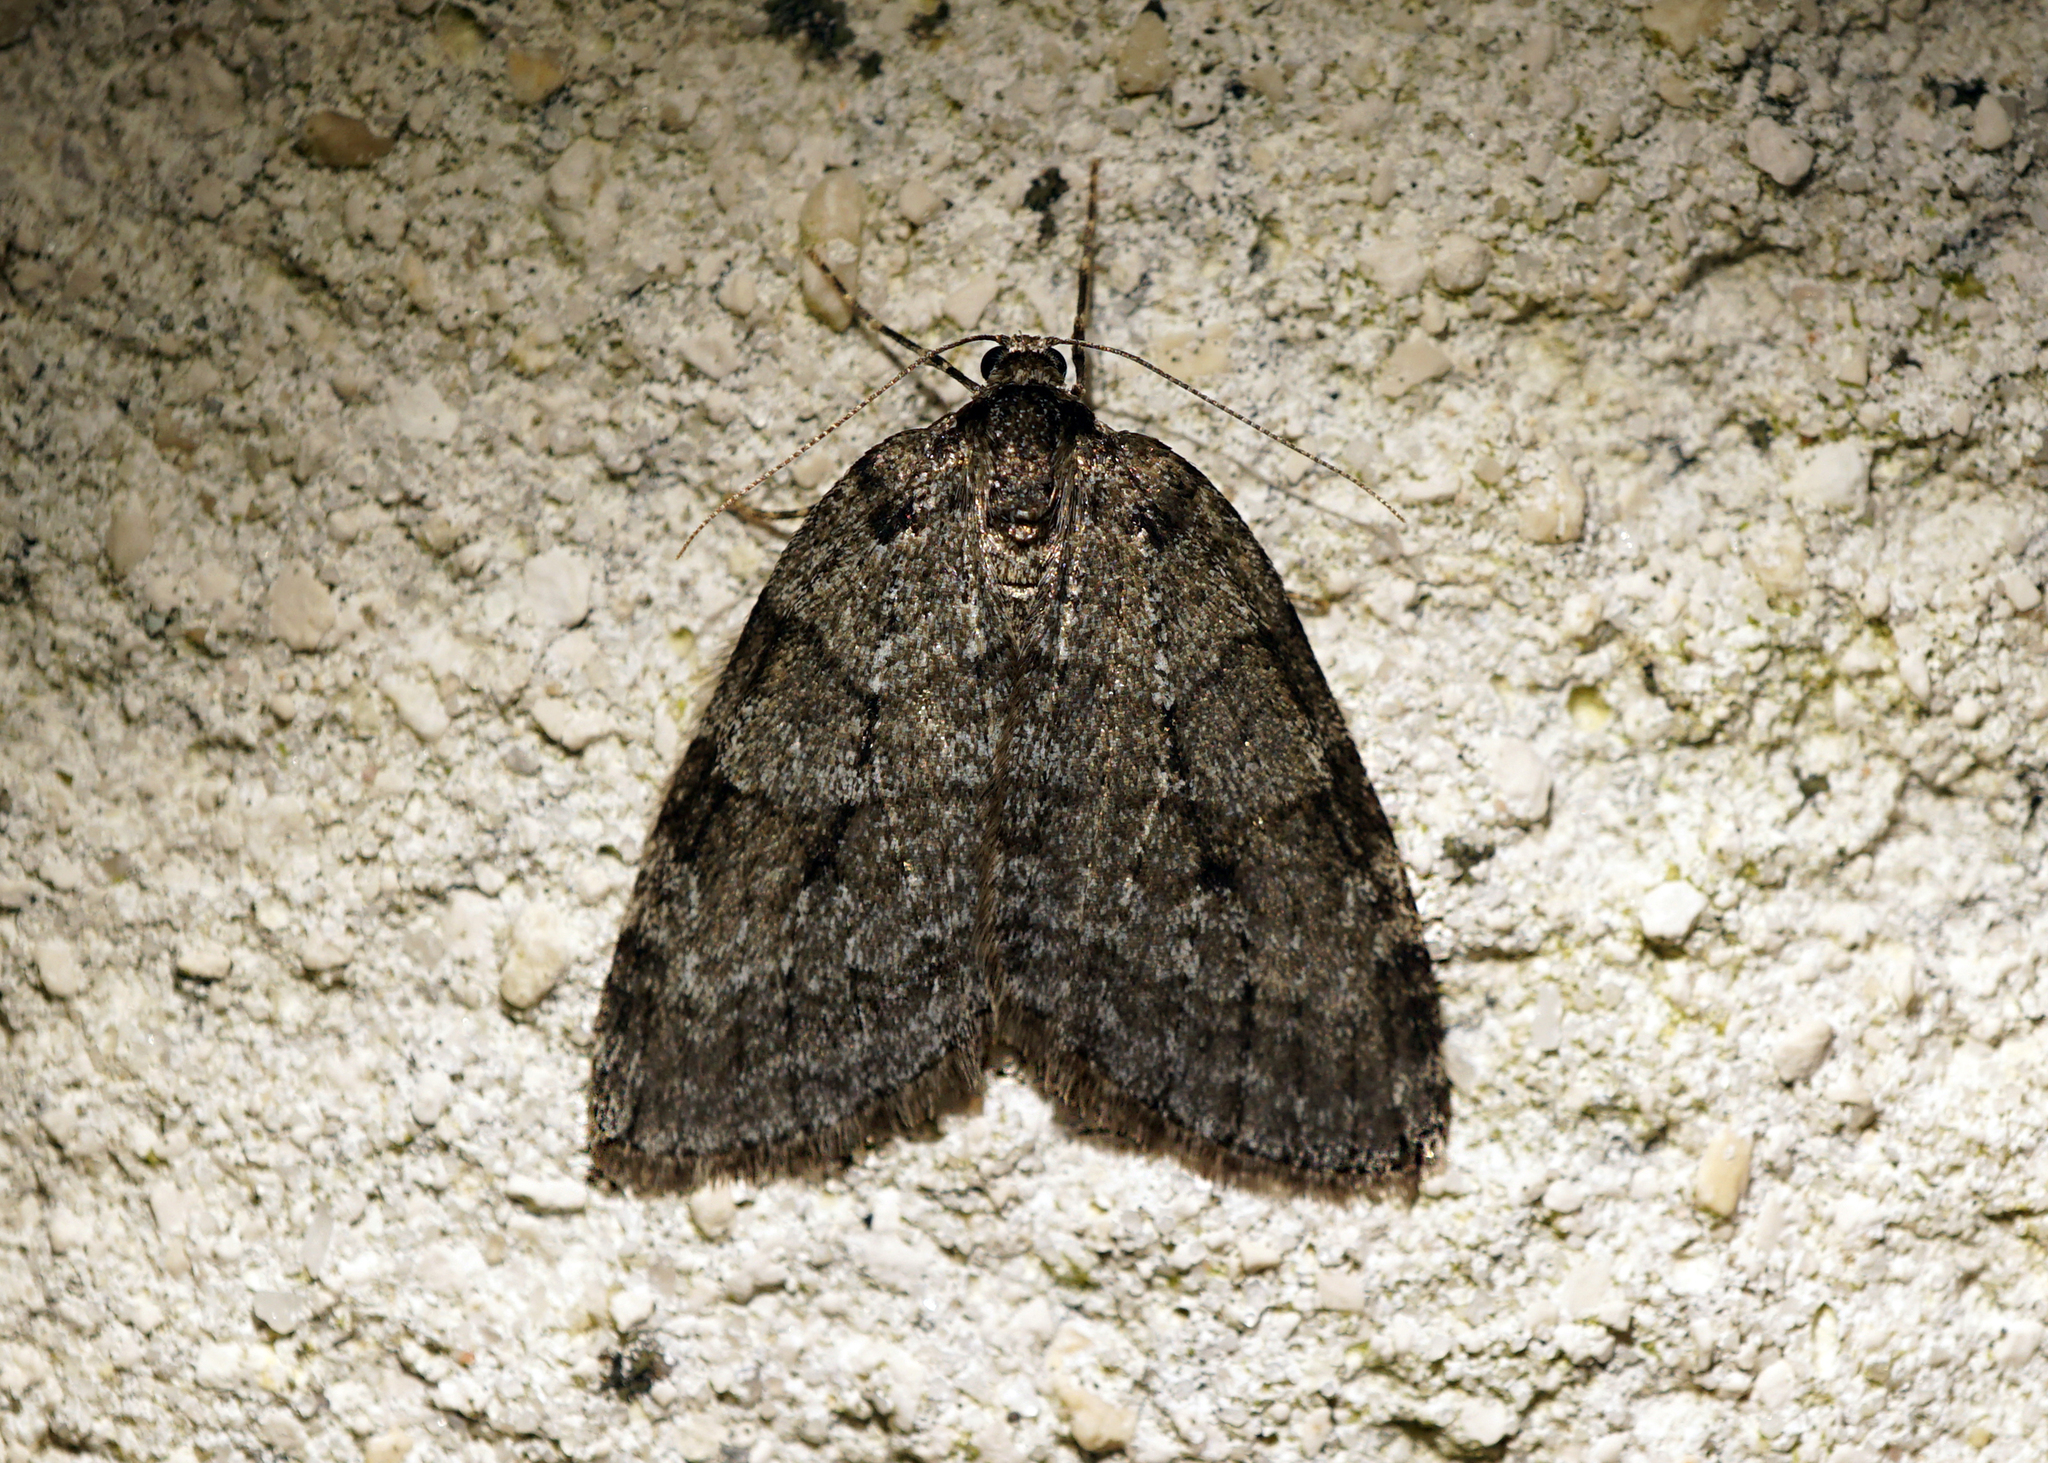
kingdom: Animalia
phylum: Arthropoda
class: Insecta
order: Lepidoptera
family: Geometridae
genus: Epirrita
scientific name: Epirrita
